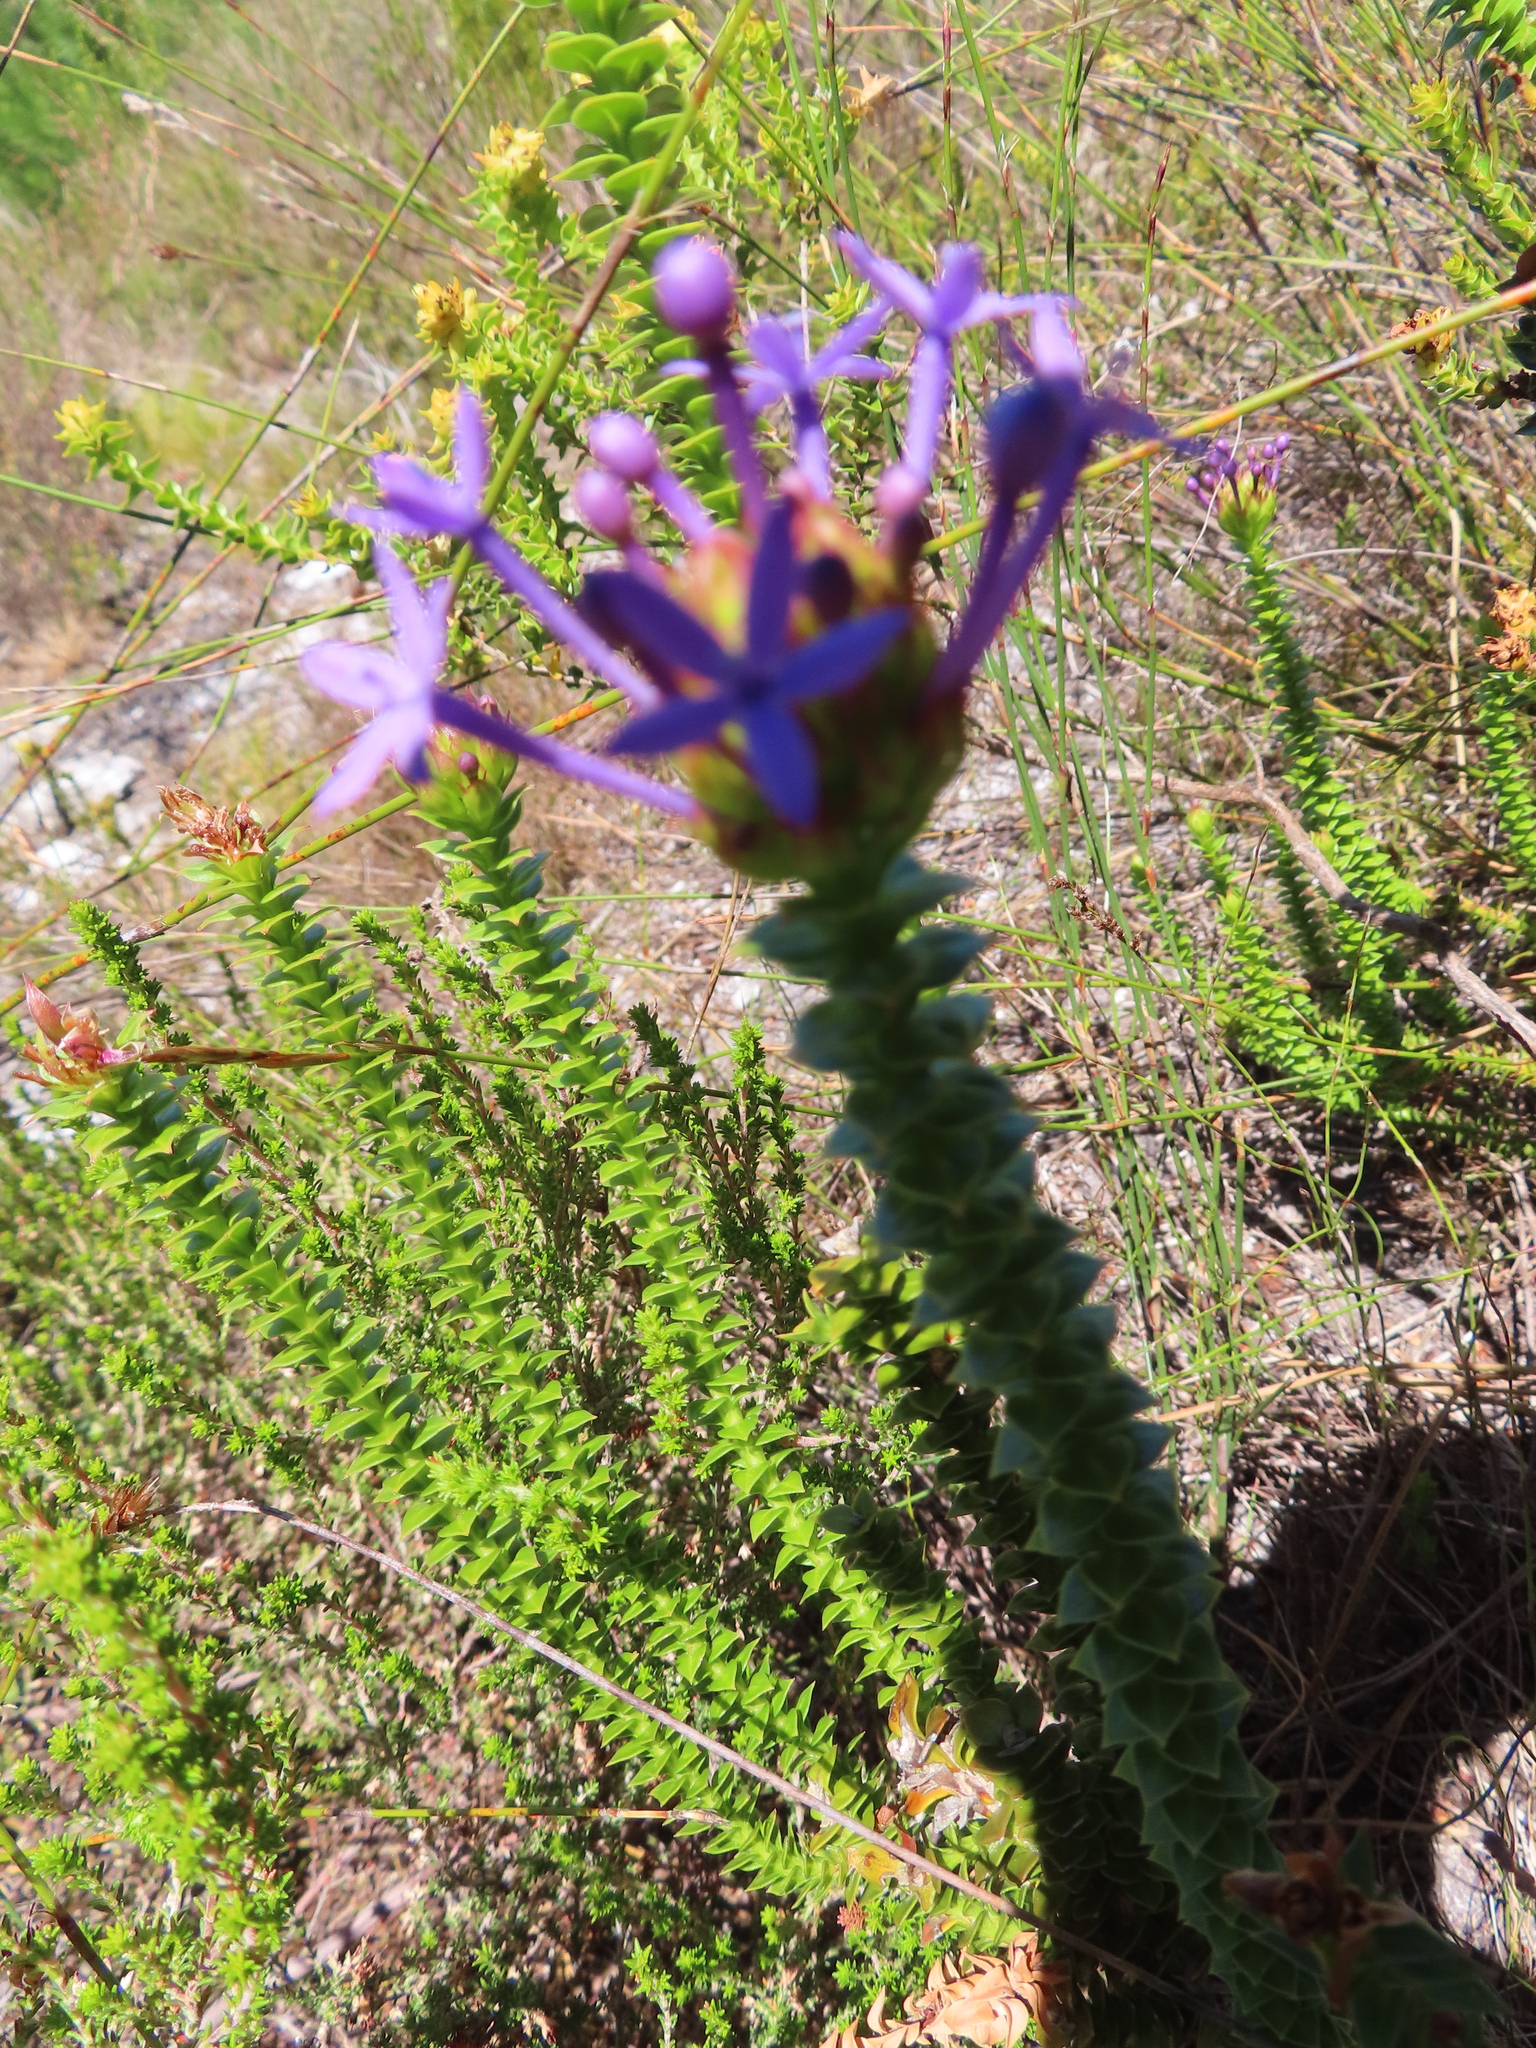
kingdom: Plantae
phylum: Tracheophyta
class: Magnoliopsida
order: Asterales
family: Campanulaceae
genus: Rhigiophyllum
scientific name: Rhigiophyllum squarrosum
